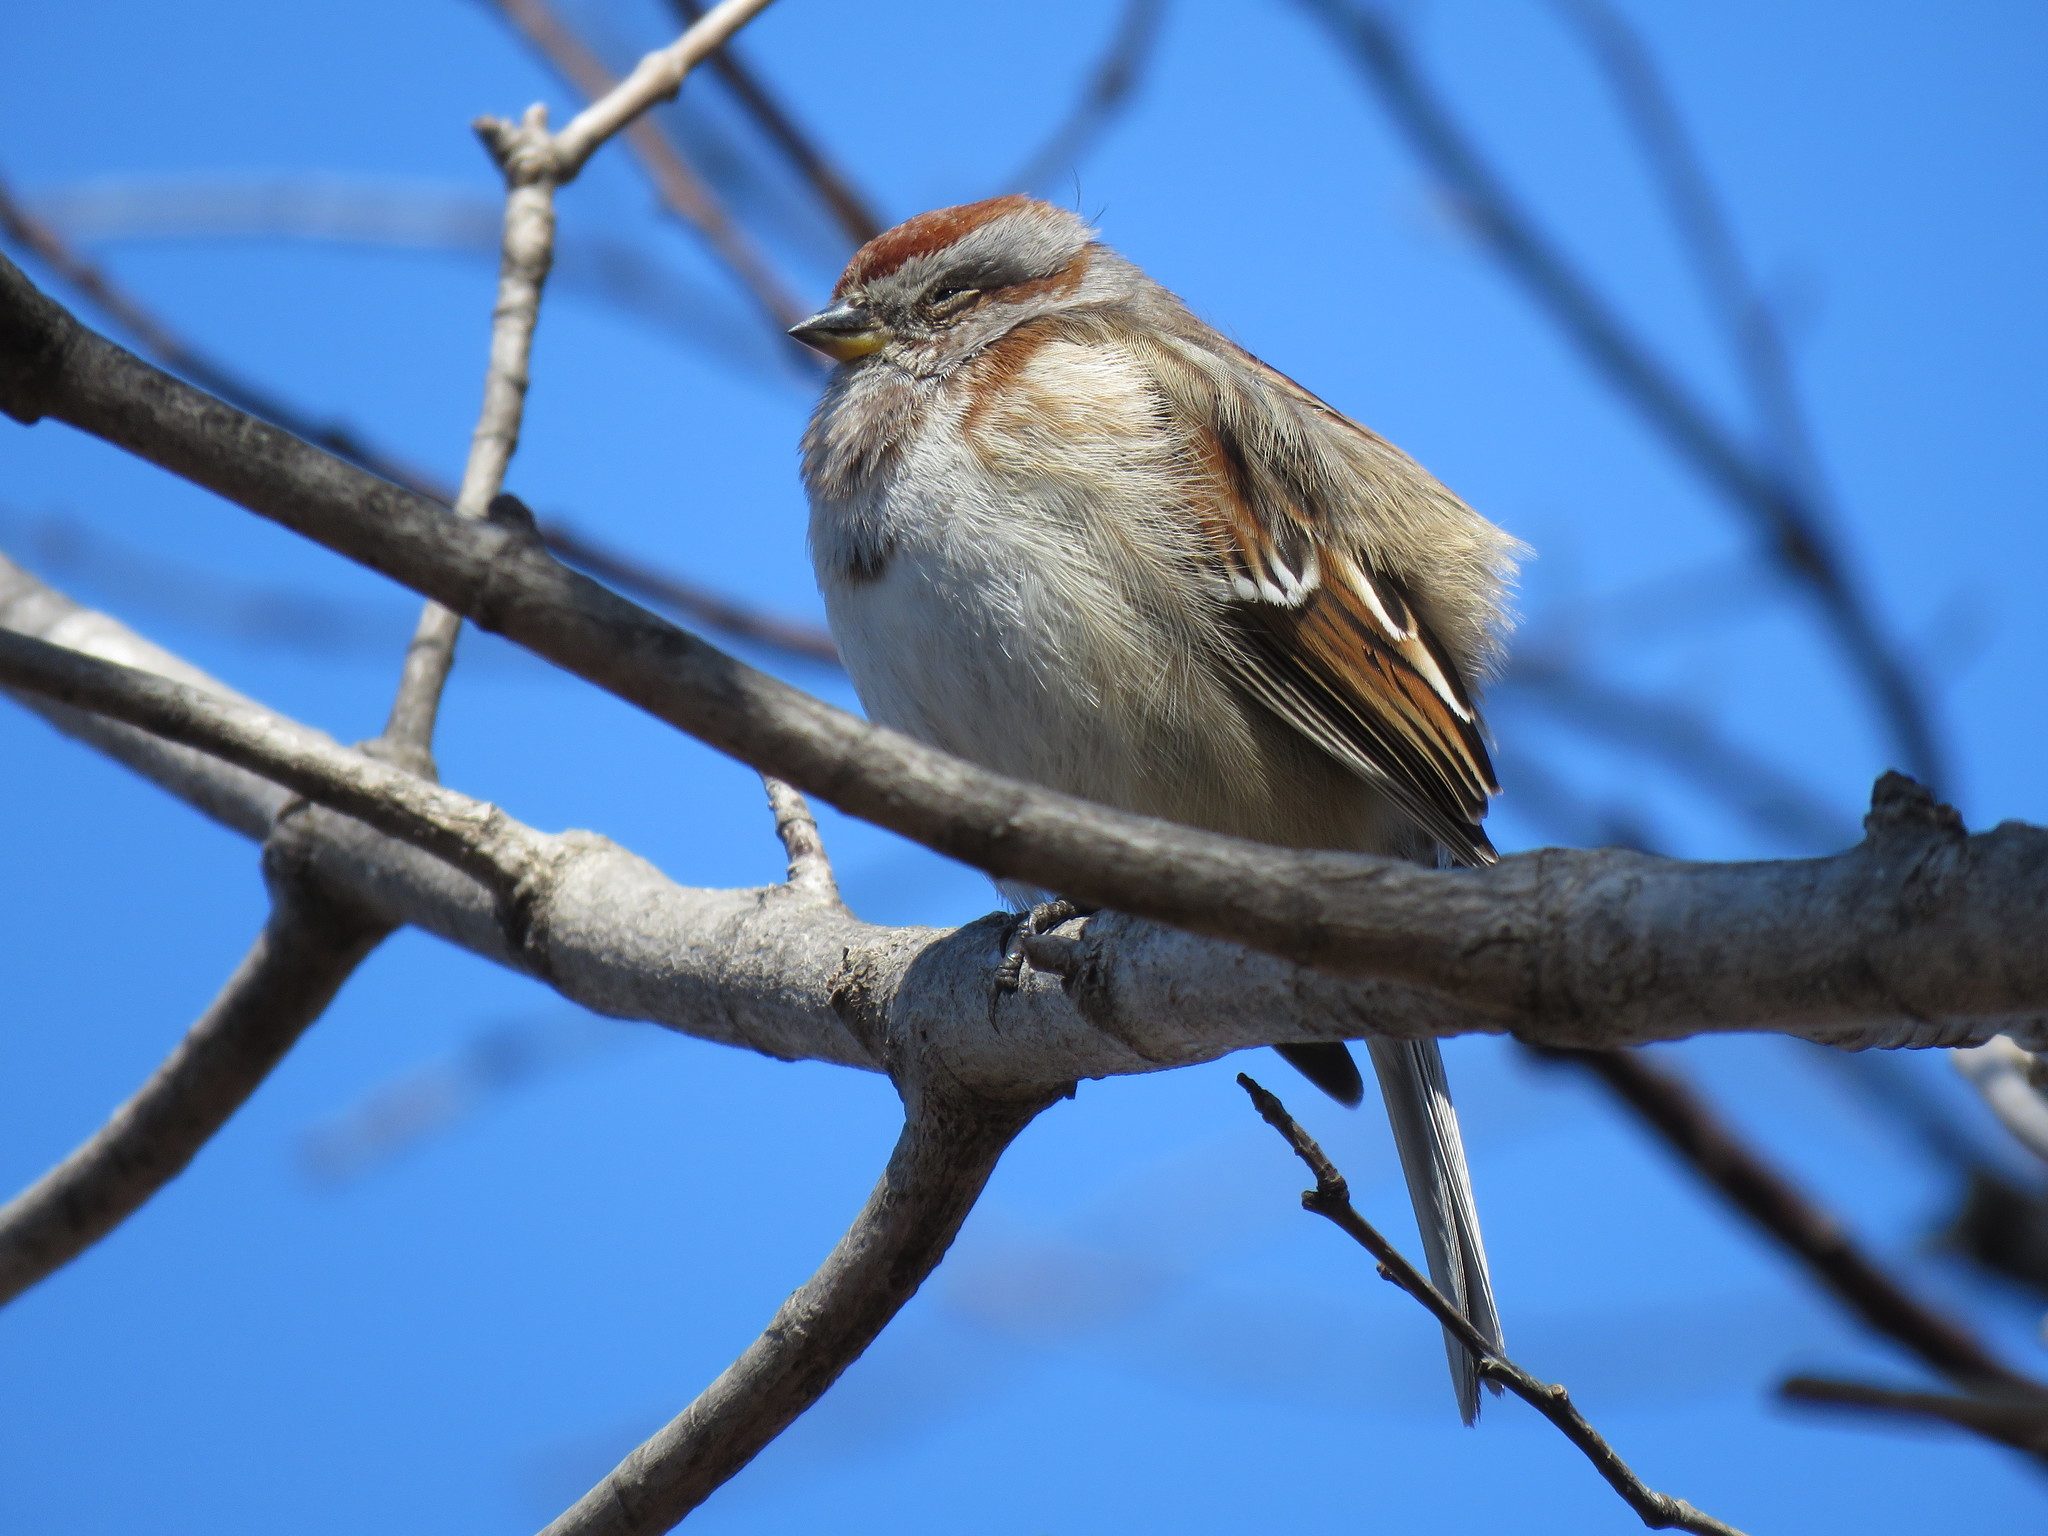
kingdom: Animalia
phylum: Chordata
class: Aves
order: Passeriformes
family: Passerellidae
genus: Spizelloides
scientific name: Spizelloides arborea
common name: American tree sparrow
